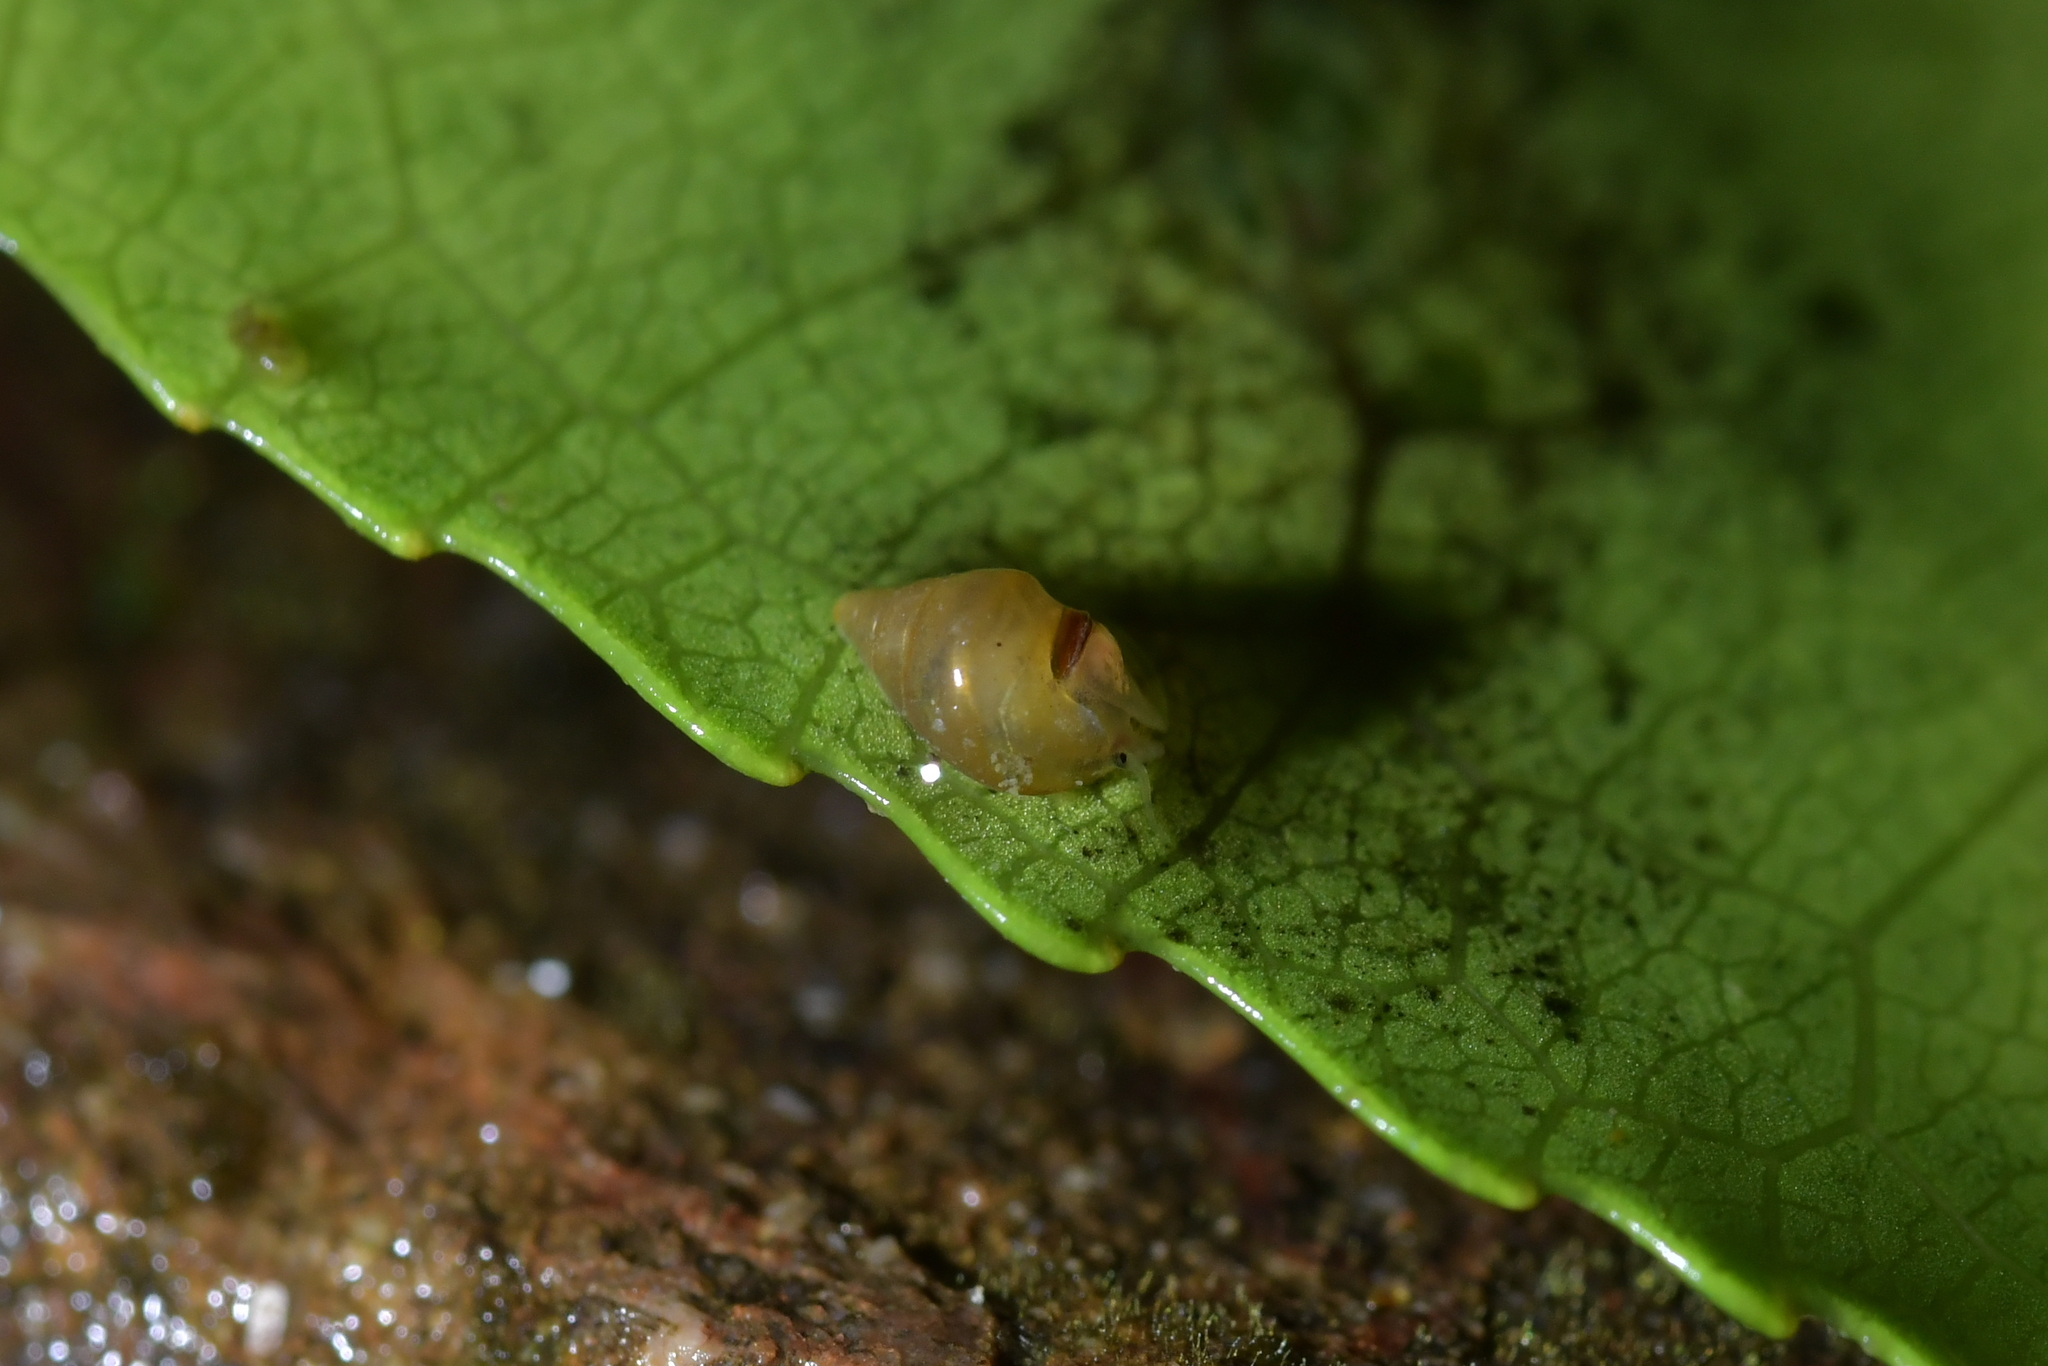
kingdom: Animalia
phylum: Mollusca
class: Gastropoda
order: Littorinimorpha
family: Tateidae
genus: Potamopyrgus
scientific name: Potamopyrgus antipodarum
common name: Jenkins' spire snail
